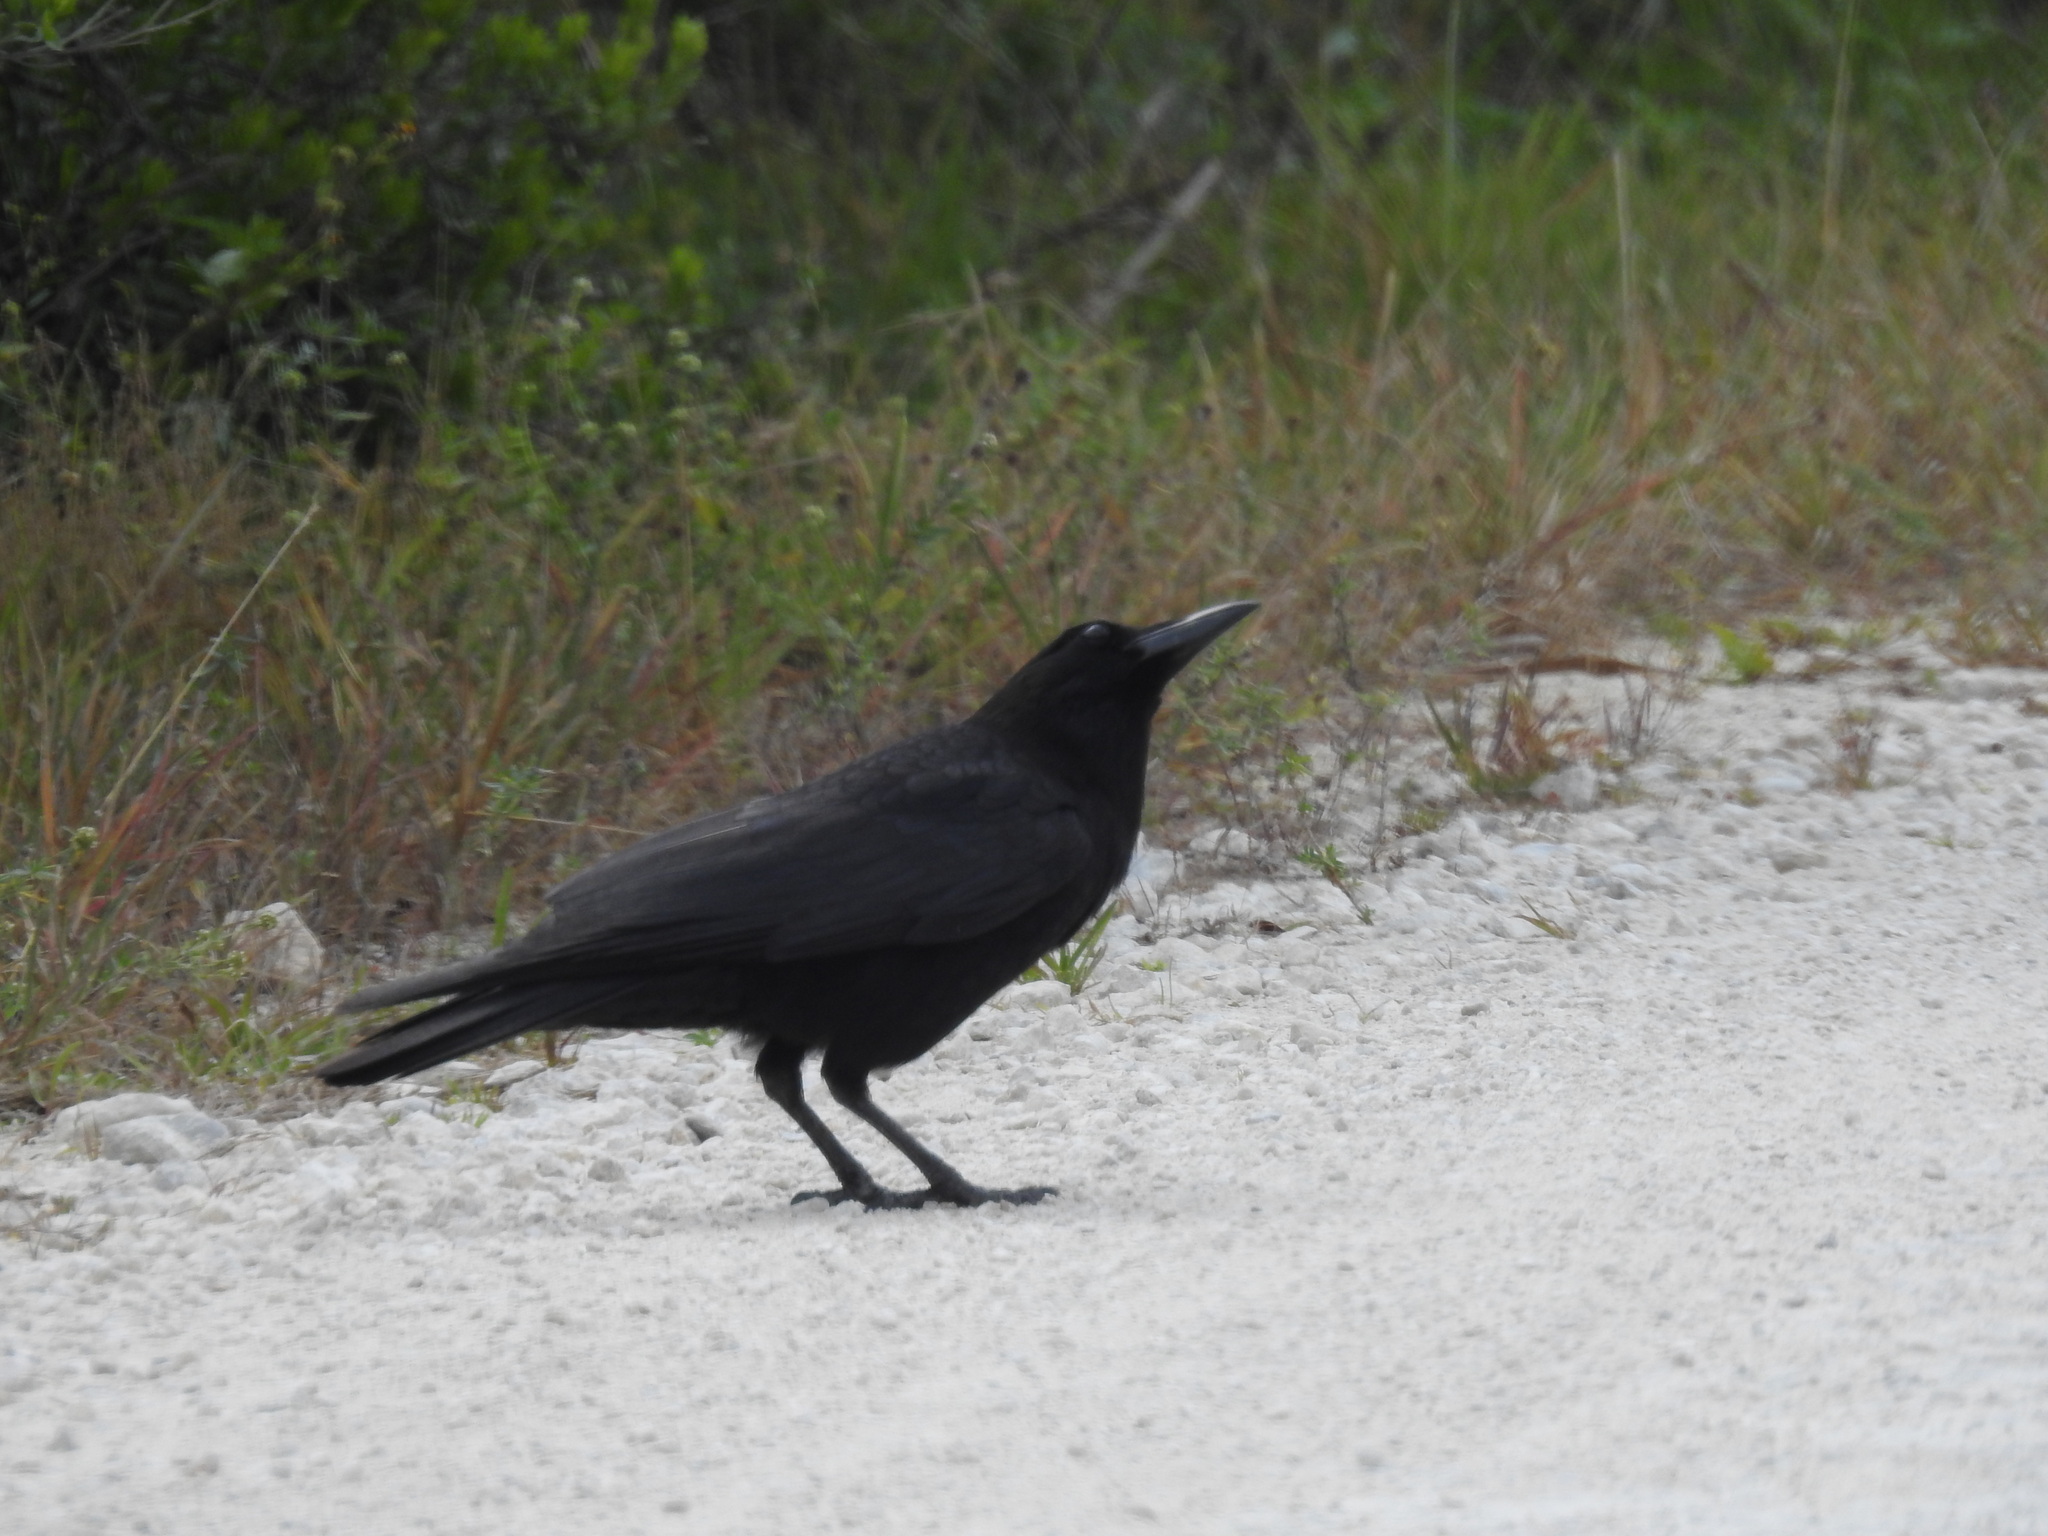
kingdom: Animalia
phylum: Chordata
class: Aves
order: Passeriformes
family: Corvidae
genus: Corvus
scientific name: Corvus brachyrhynchos
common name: American crow
